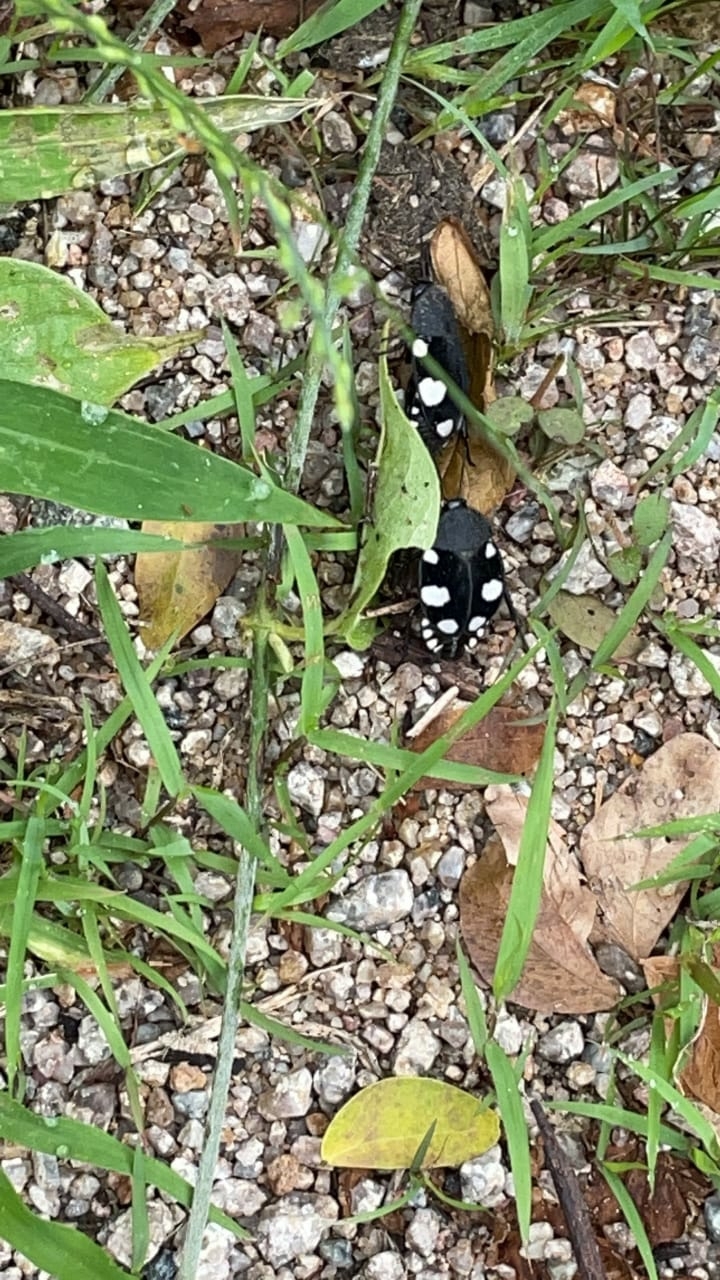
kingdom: Animalia
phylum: Arthropoda
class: Insecta
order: Blattodea
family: Corydiidae
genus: Therea
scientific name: Therea petiveriana
